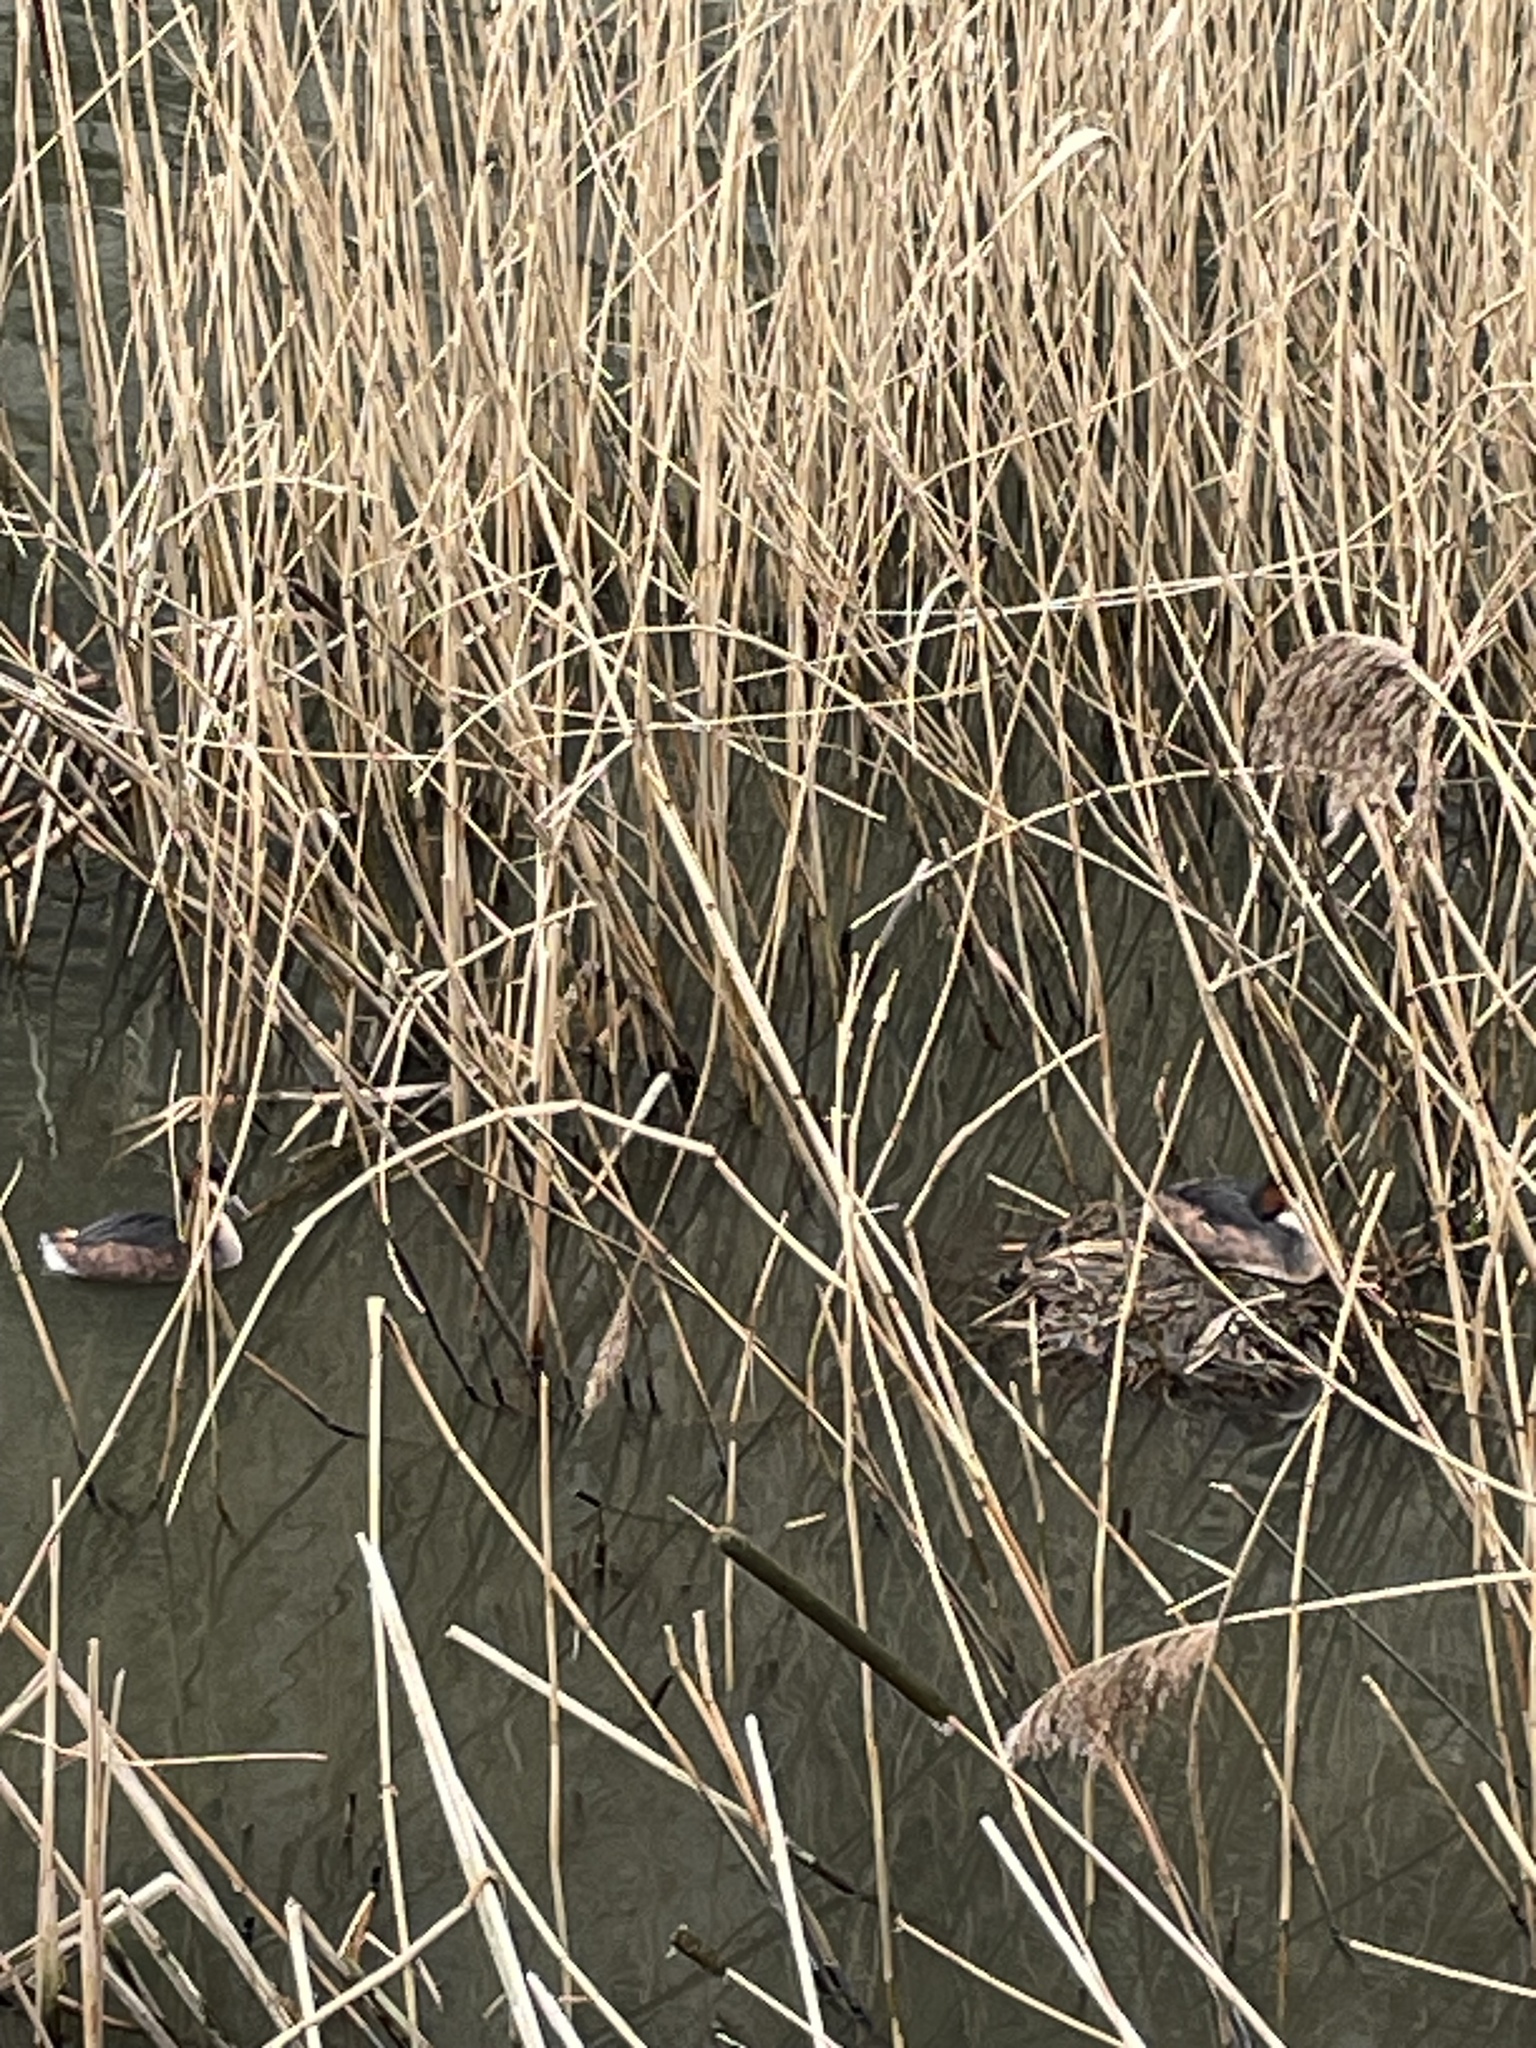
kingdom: Animalia
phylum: Chordata
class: Aves
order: Podicipediformes
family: Podicipedidae
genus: Podiceps
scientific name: Podiceps cristatus
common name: Great crested grebe
